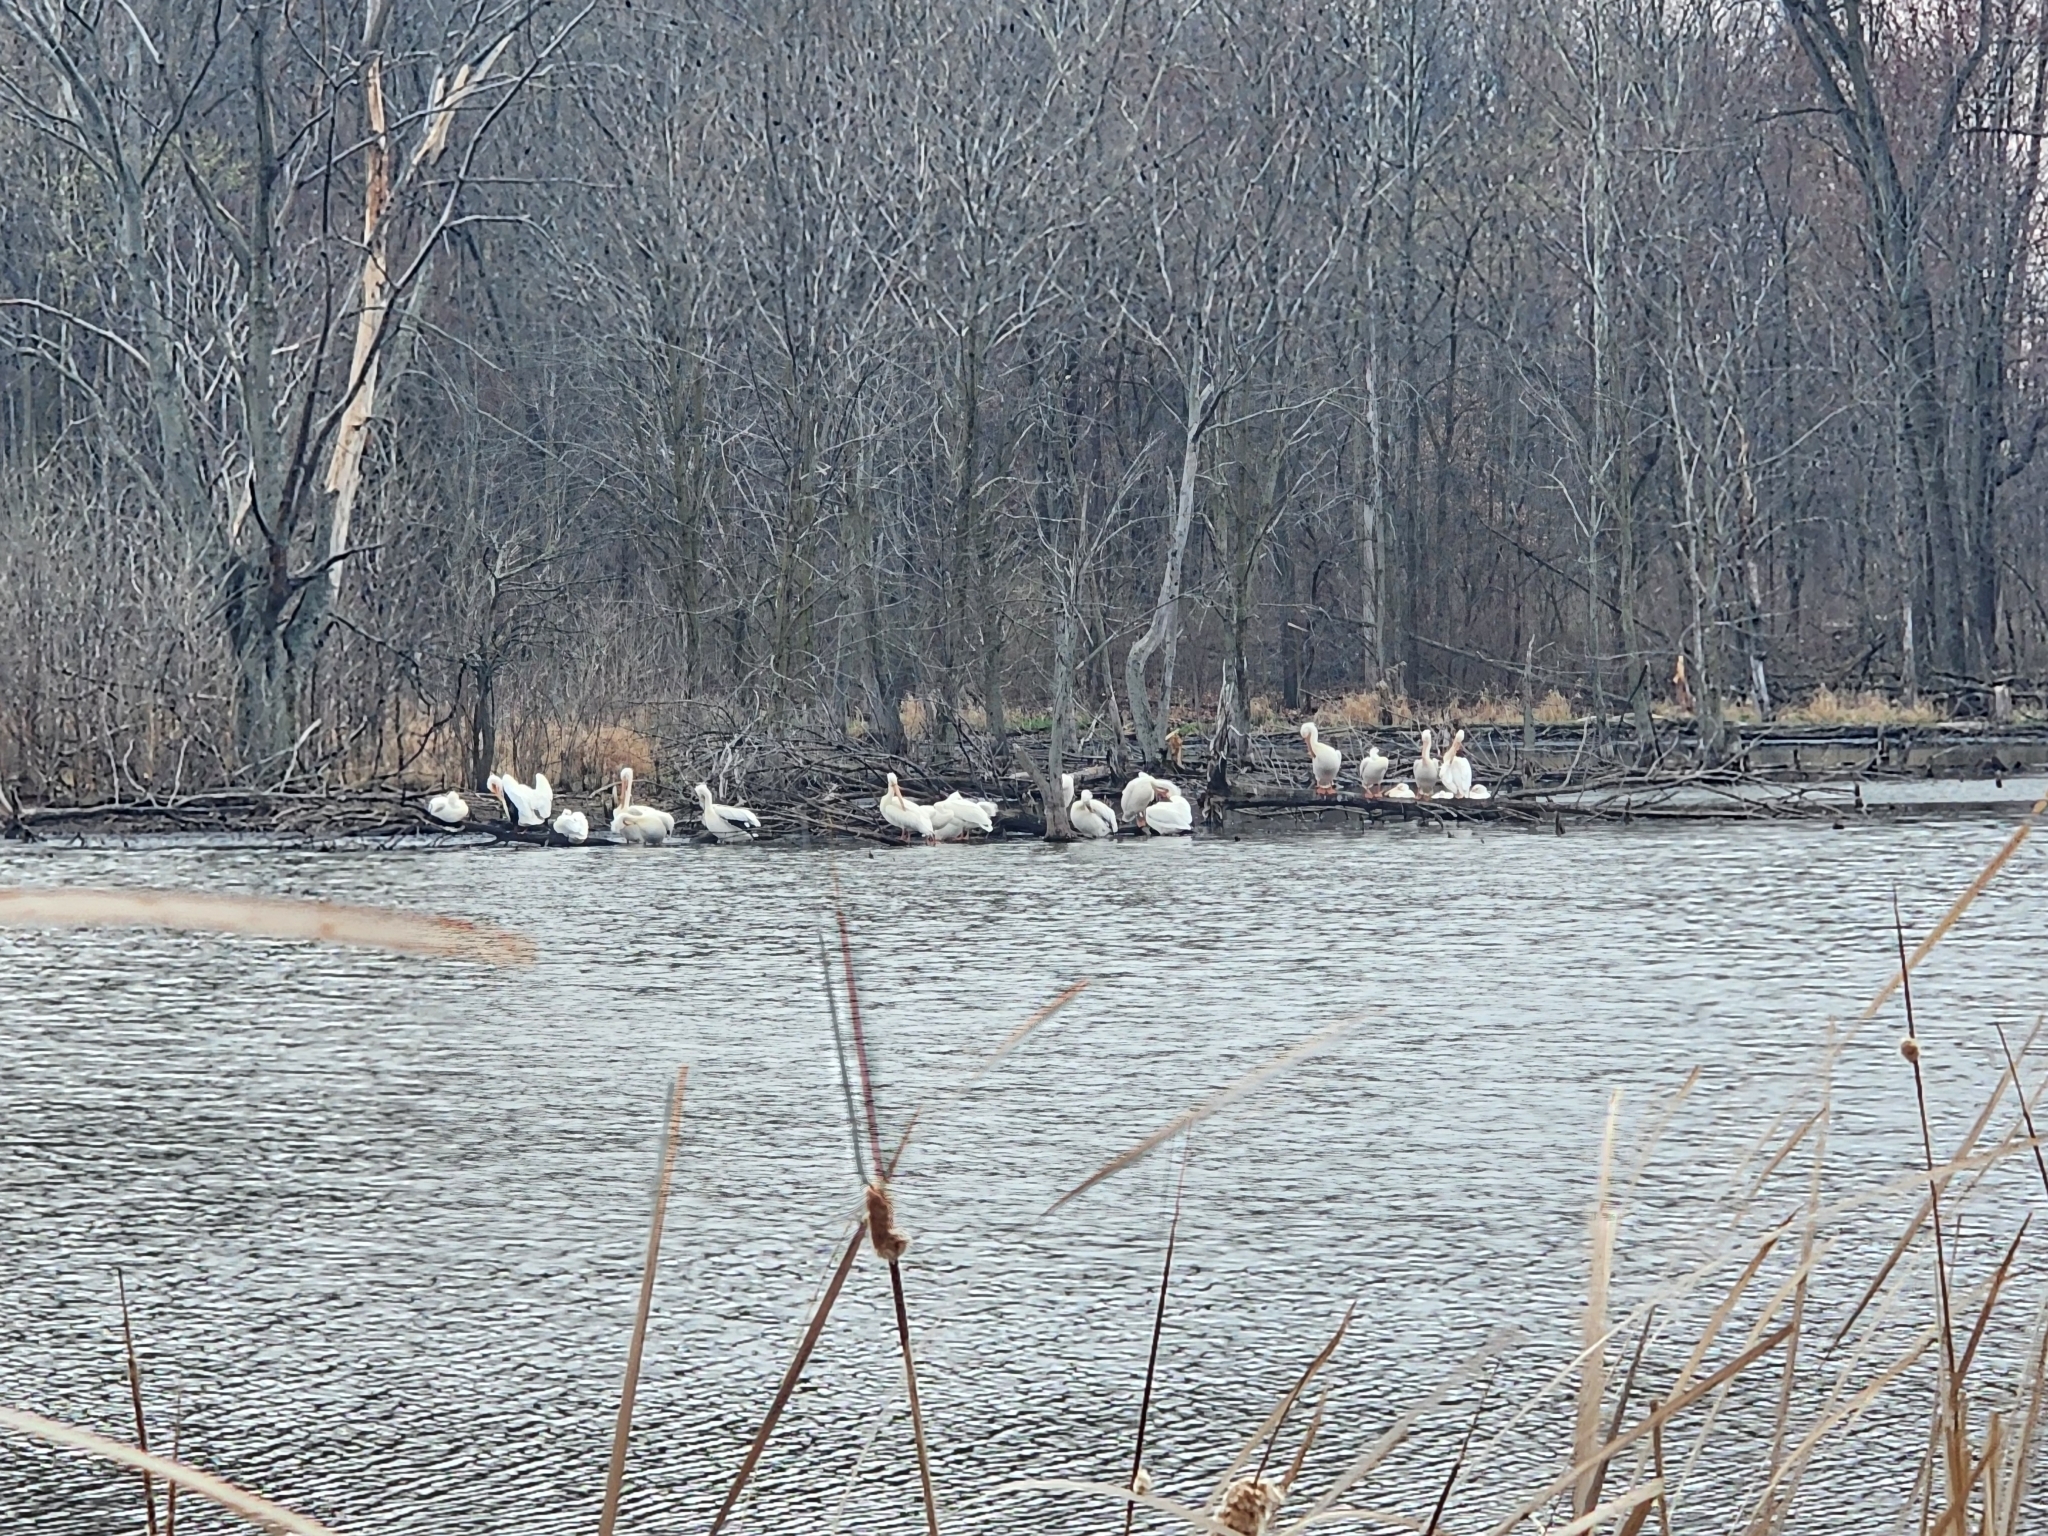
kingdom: Animalia
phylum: Chordata
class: Aves
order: Pelecaniformes
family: Pelecanidae
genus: Pelecanus
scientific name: Pelecanus erythrorhynchos
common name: American white pelican
